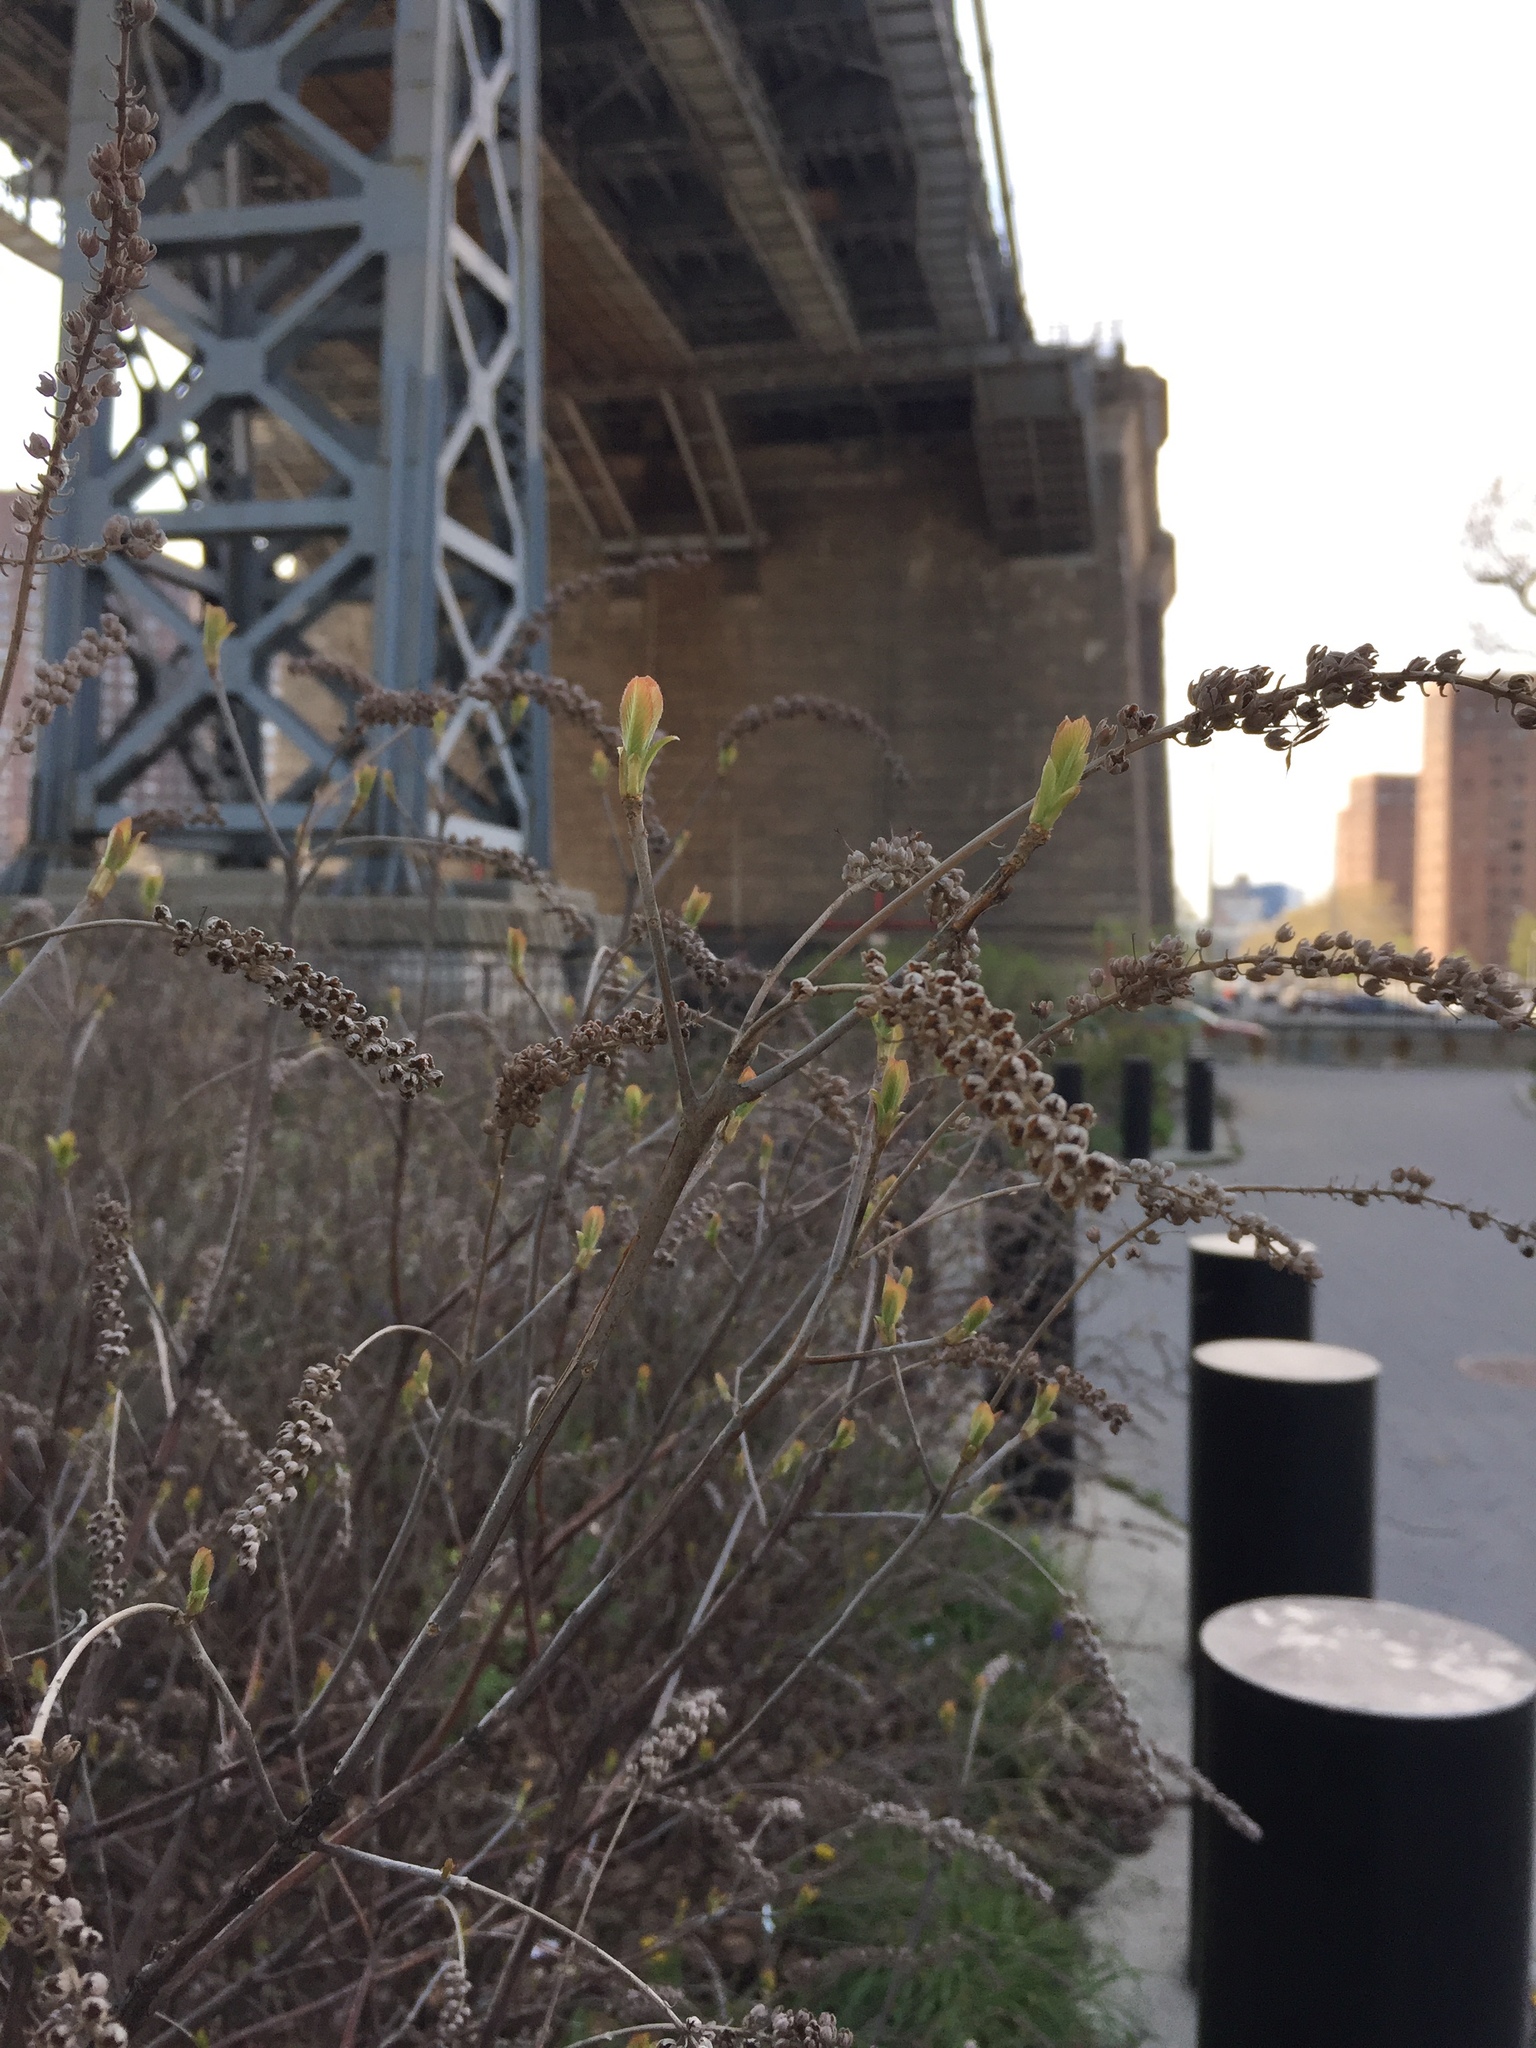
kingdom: Plantae
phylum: Tracheophyta
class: Magnoliopsida
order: Ericales
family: Clethraceae
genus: Clethra
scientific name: Clethra alnifolia
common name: Sweet pepperbush
